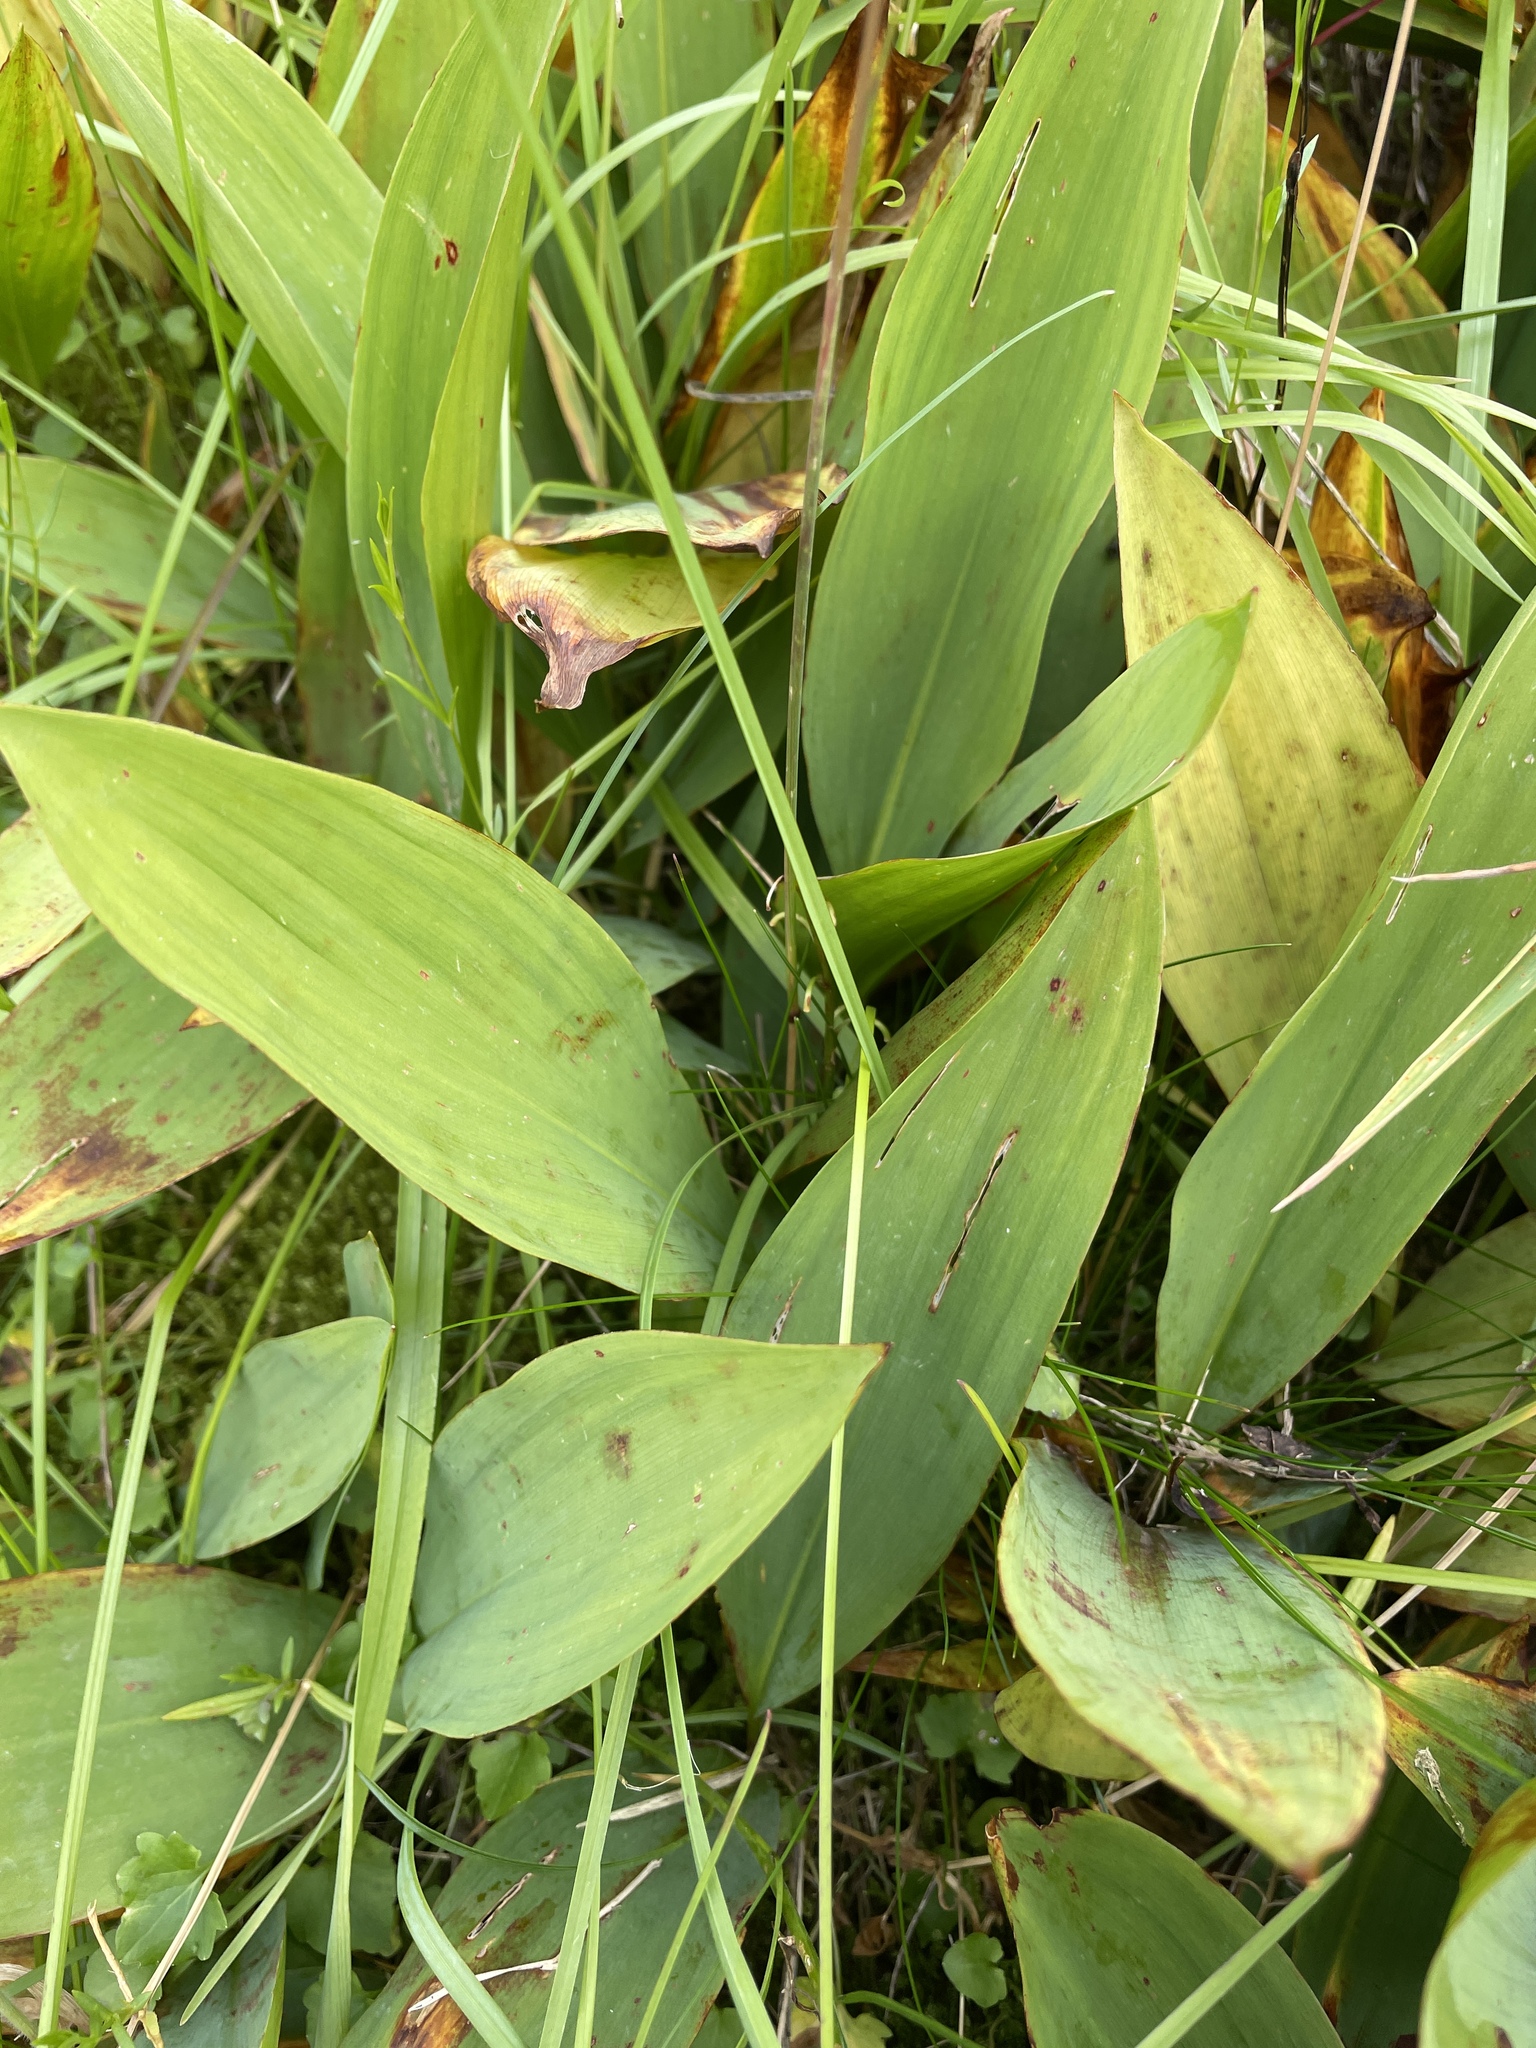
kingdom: Plantae
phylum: Tracheophyta
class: Liliopsida
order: Asparagales
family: Asparagaceae
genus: Convallaria
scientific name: Convallaria majalis
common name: Lily-of-the-valley
